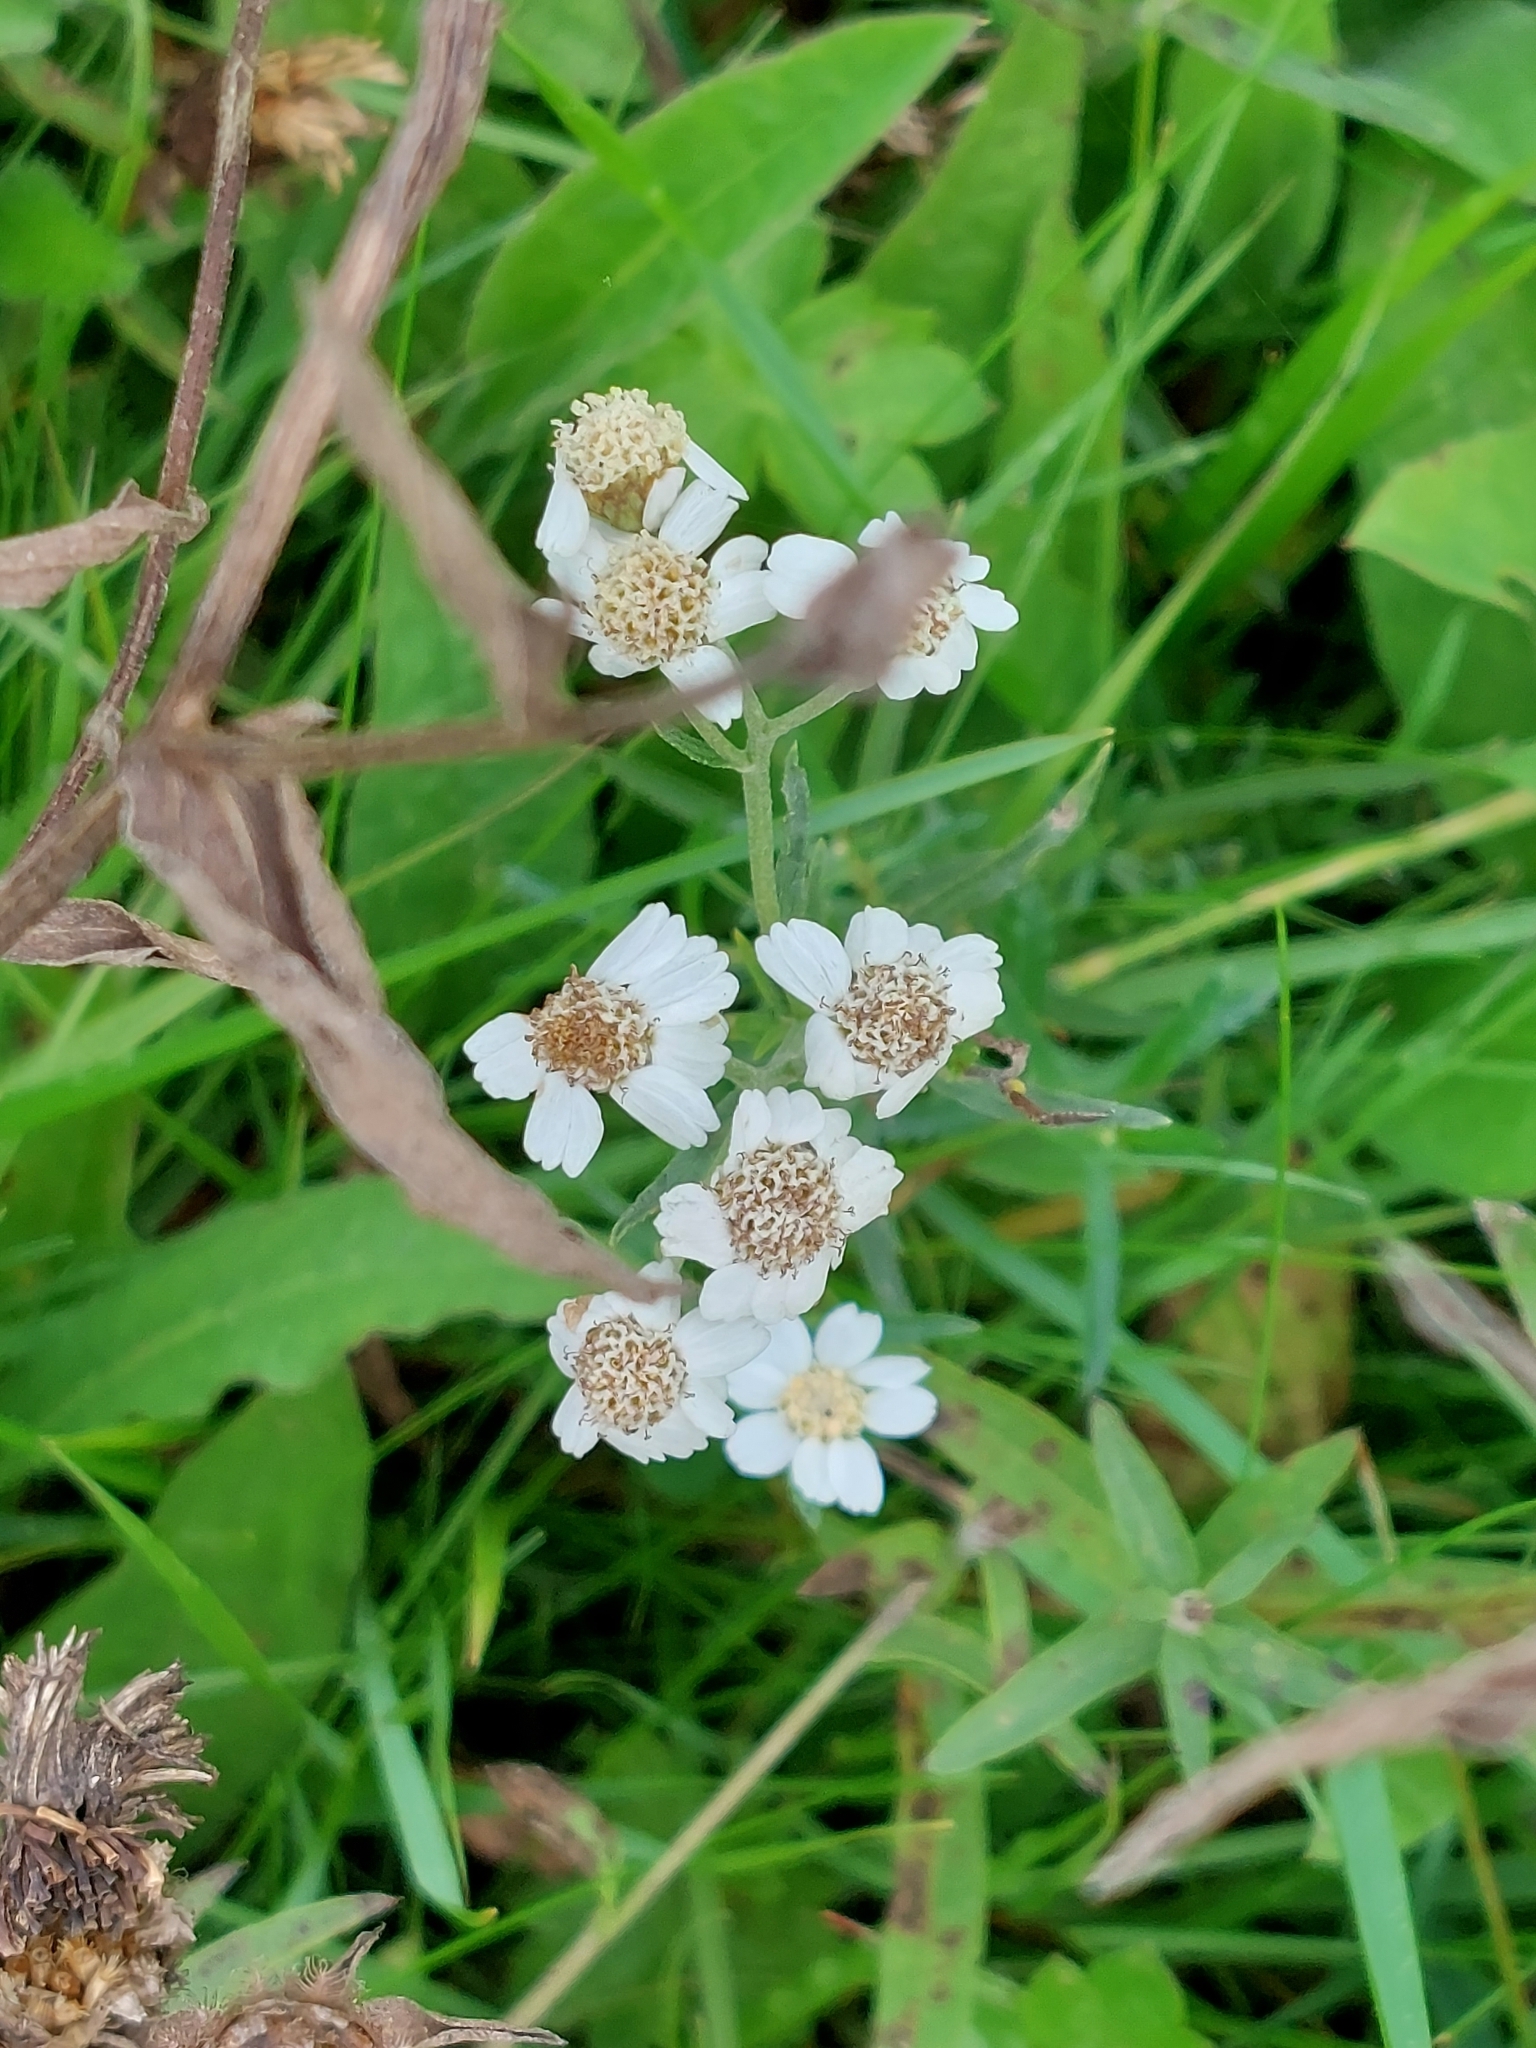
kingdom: Plantae
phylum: Tracheophyta
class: Magnoliopsida
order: Asterales
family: Asteraceae
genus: Achillea
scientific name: Achillea ptarmica
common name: Sneezeweed
